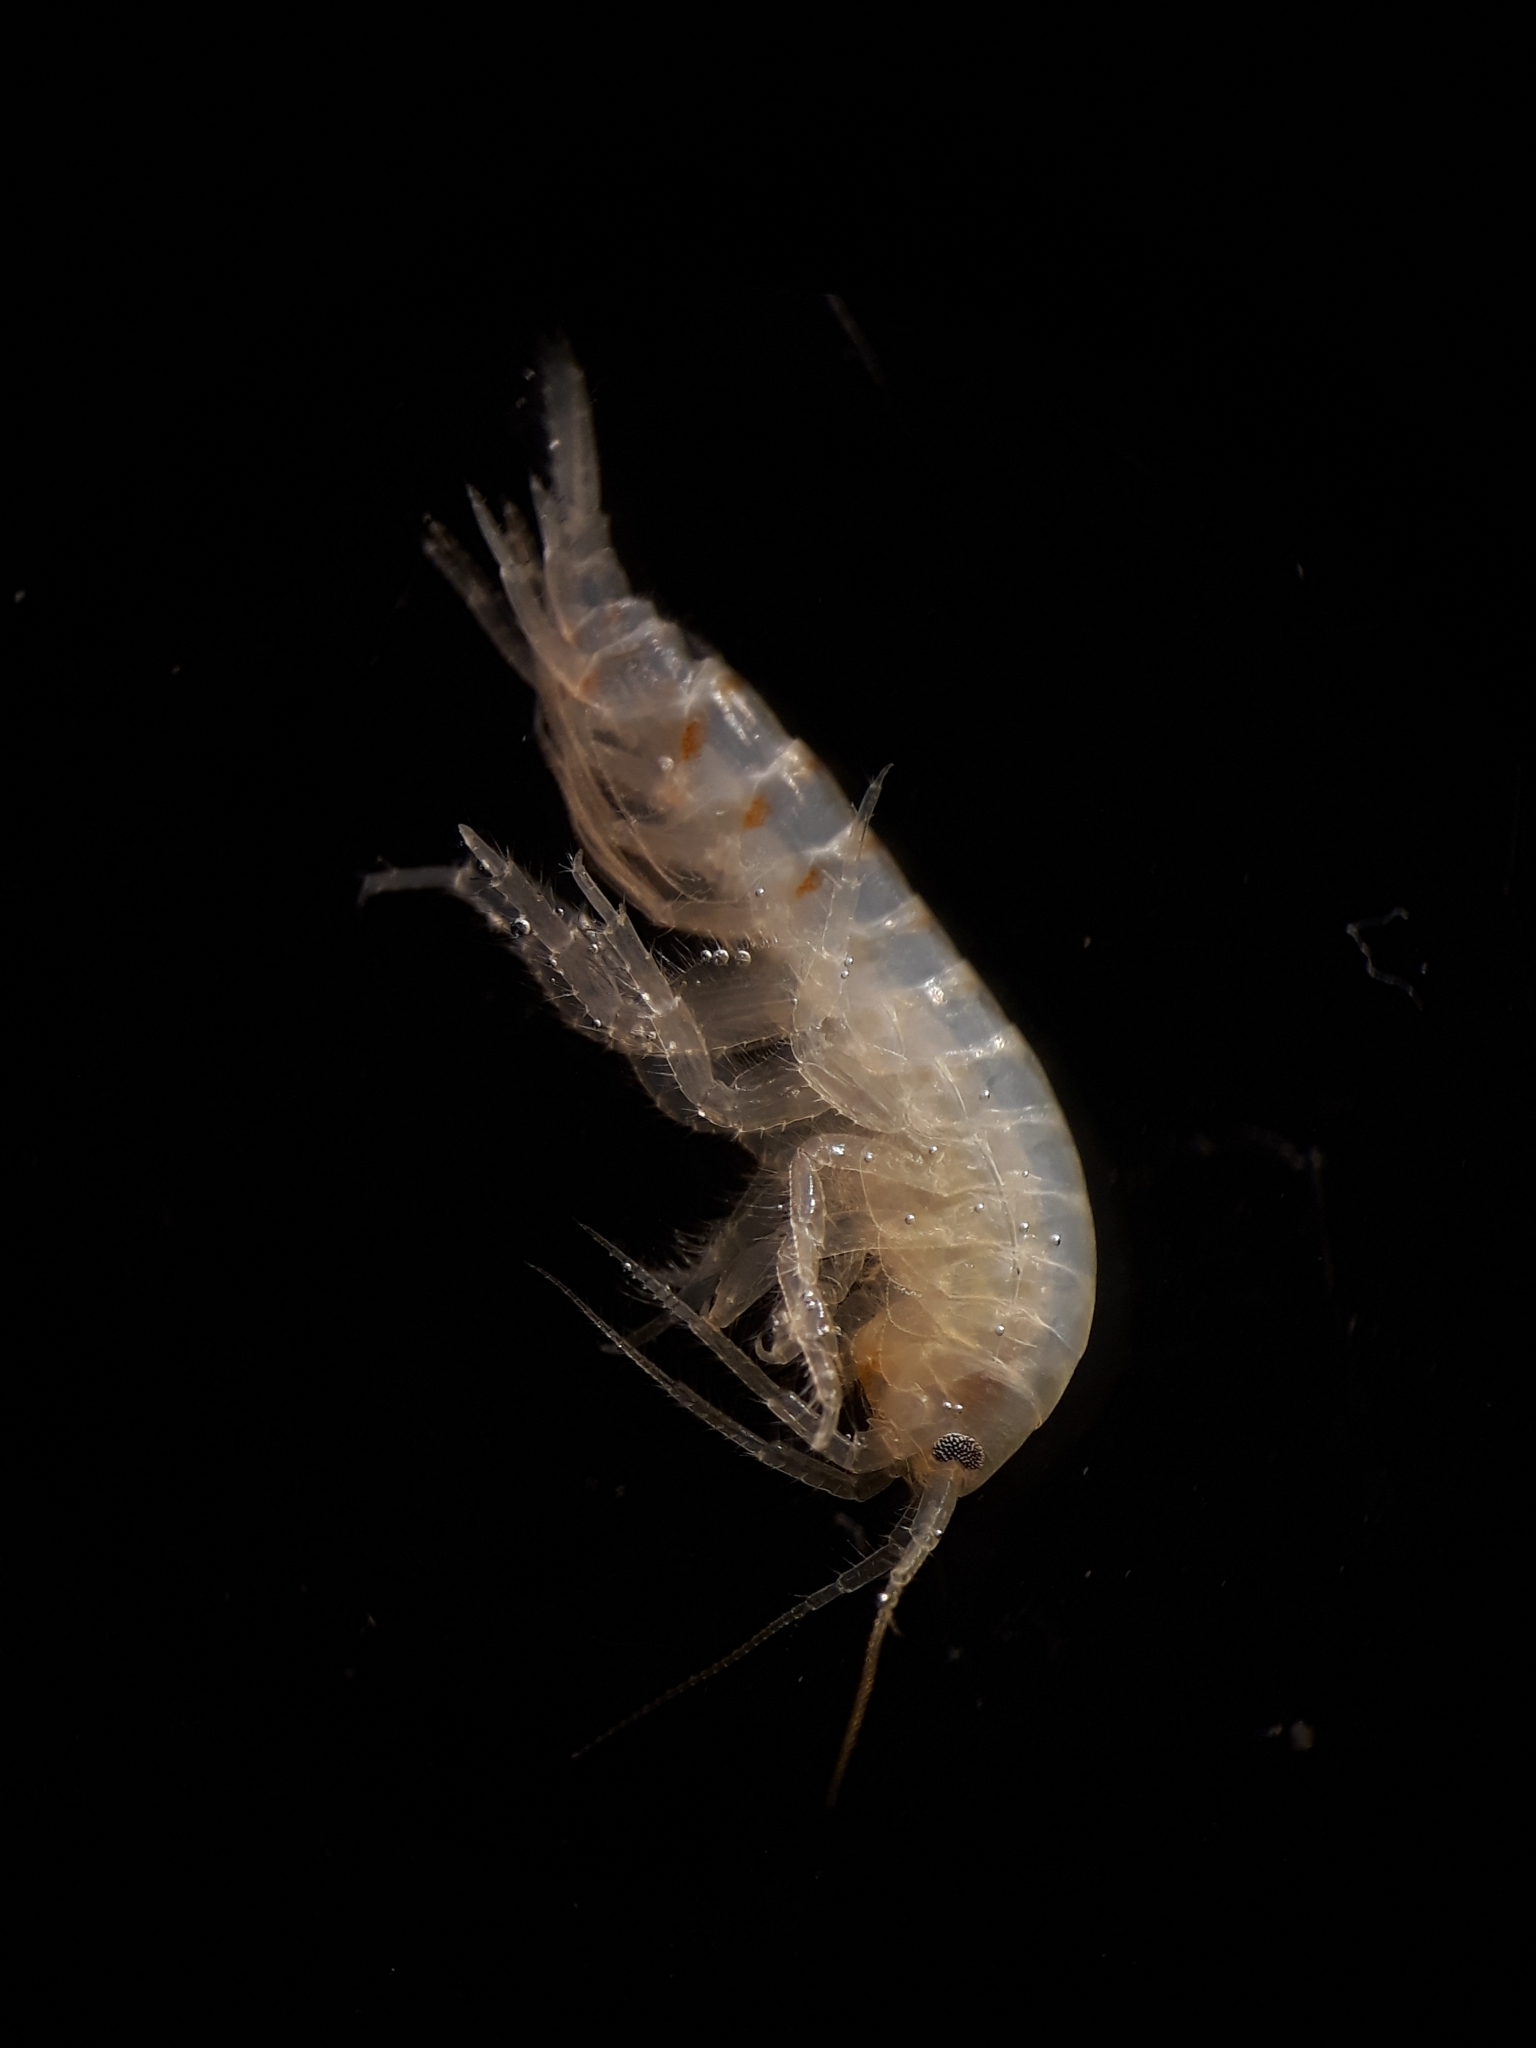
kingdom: Animalia
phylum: Arthropoda
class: Malacostraca
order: Amphipoda
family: Gammaridae
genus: Gammarus
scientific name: Gammarus pulex
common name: Common freshwater amphipod
